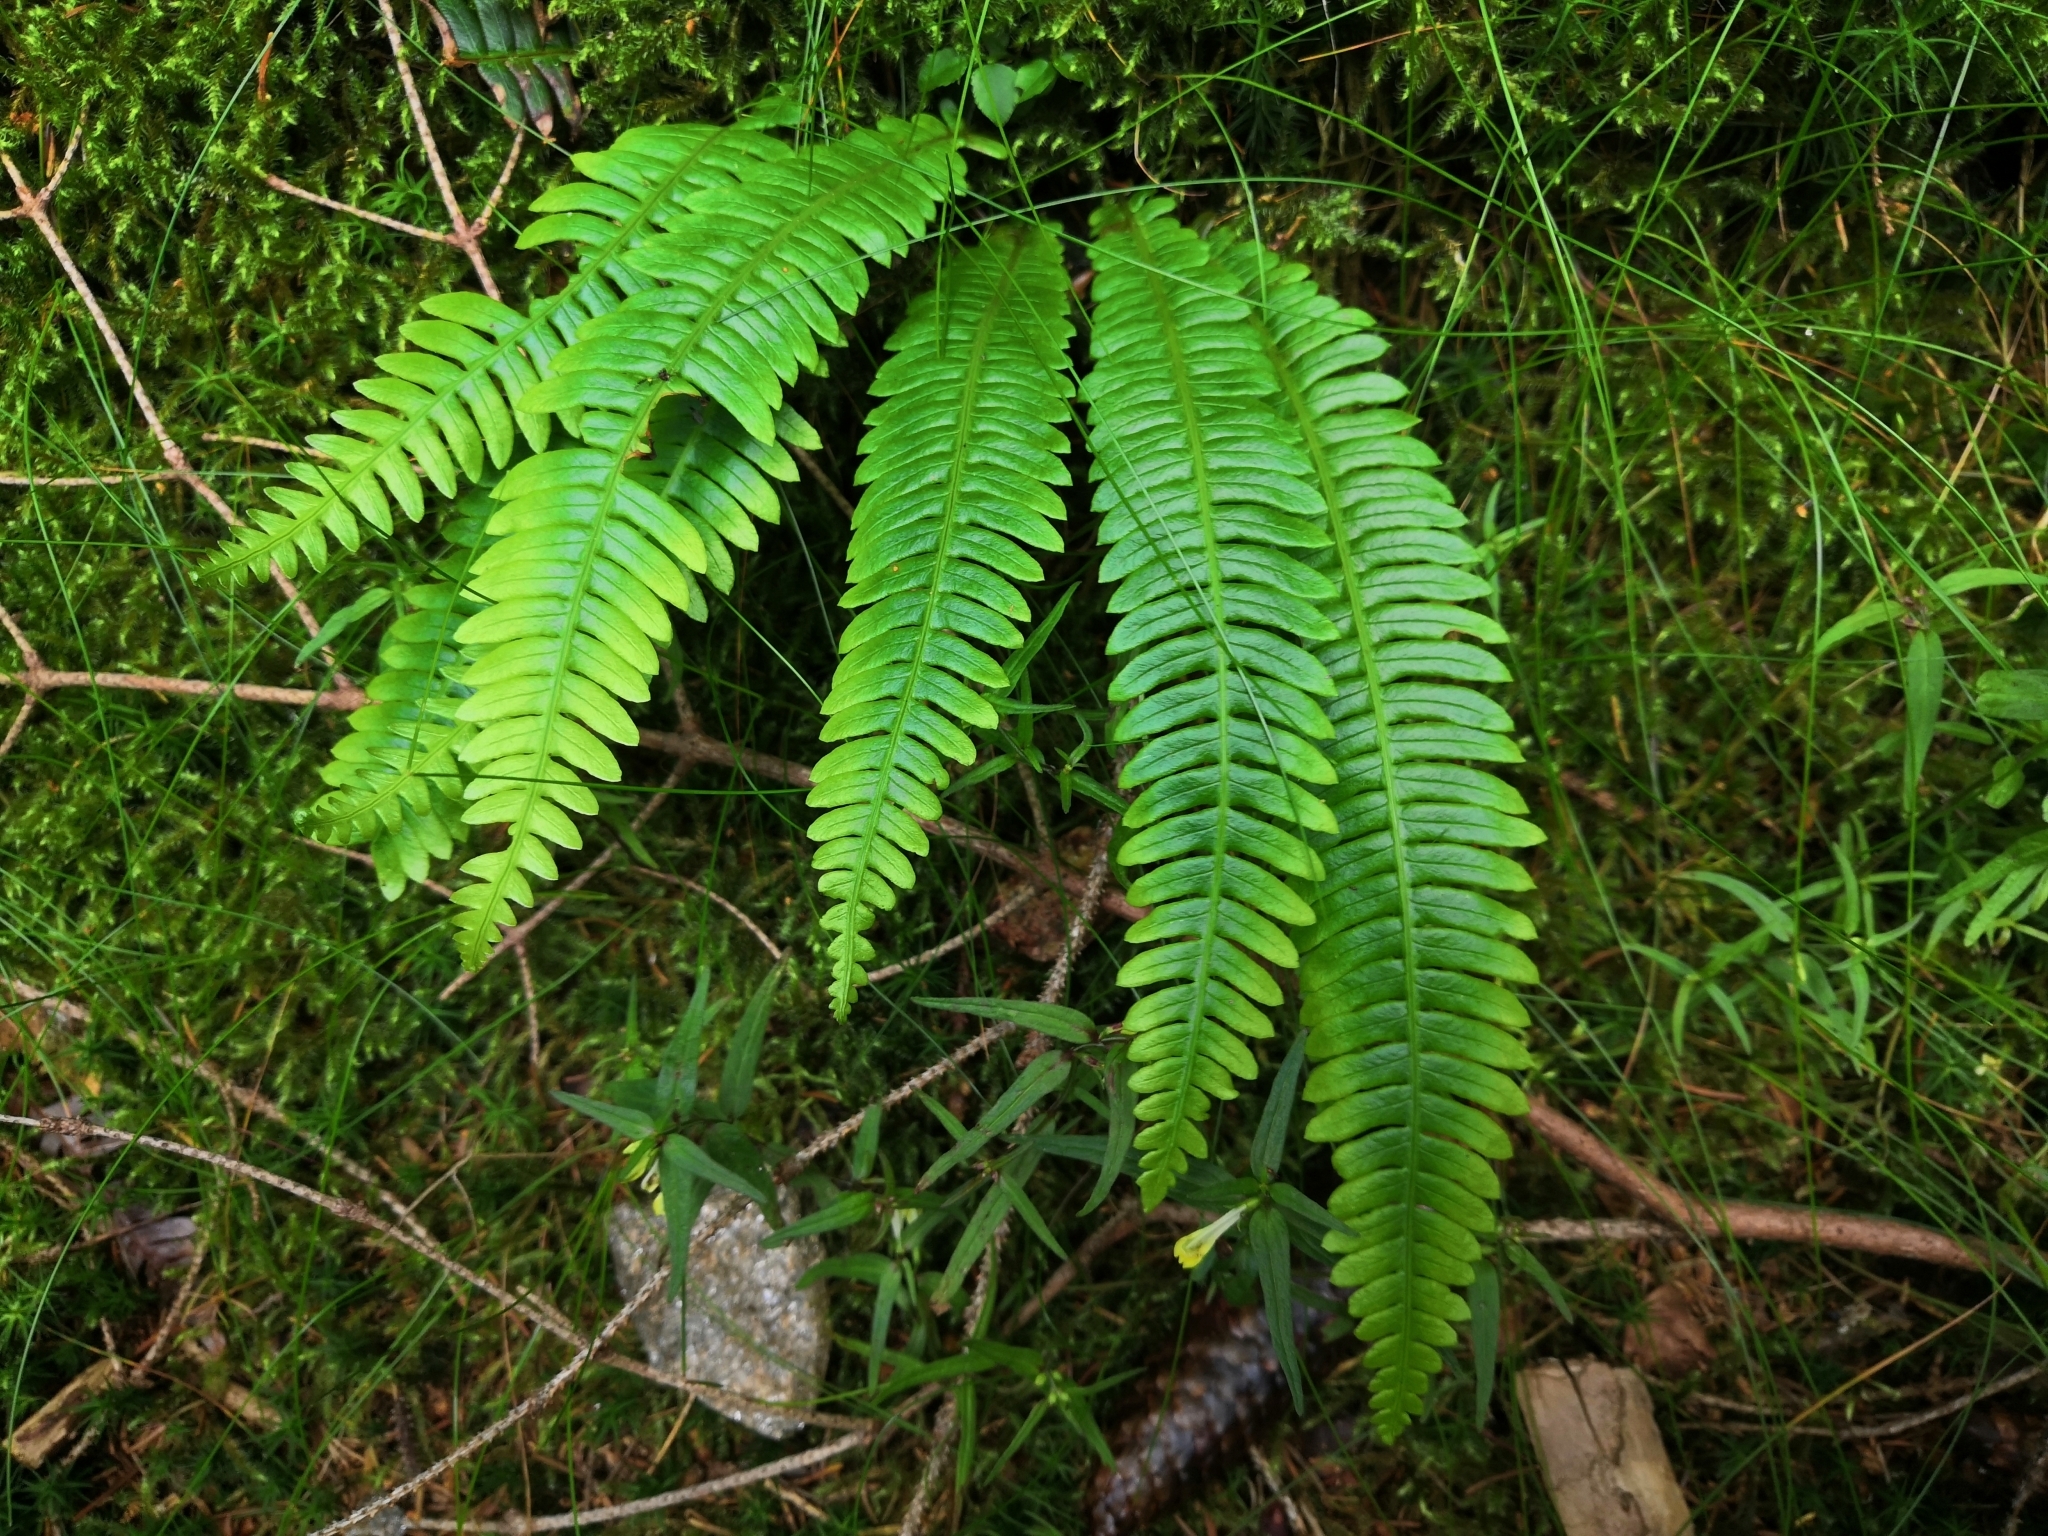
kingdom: Plantae
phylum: Tracheophyta
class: Polypodiopsida
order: Polypodiales
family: Blechnaceae
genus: Struthiopteris
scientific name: Struthiopteris spicant
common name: Deer fern
